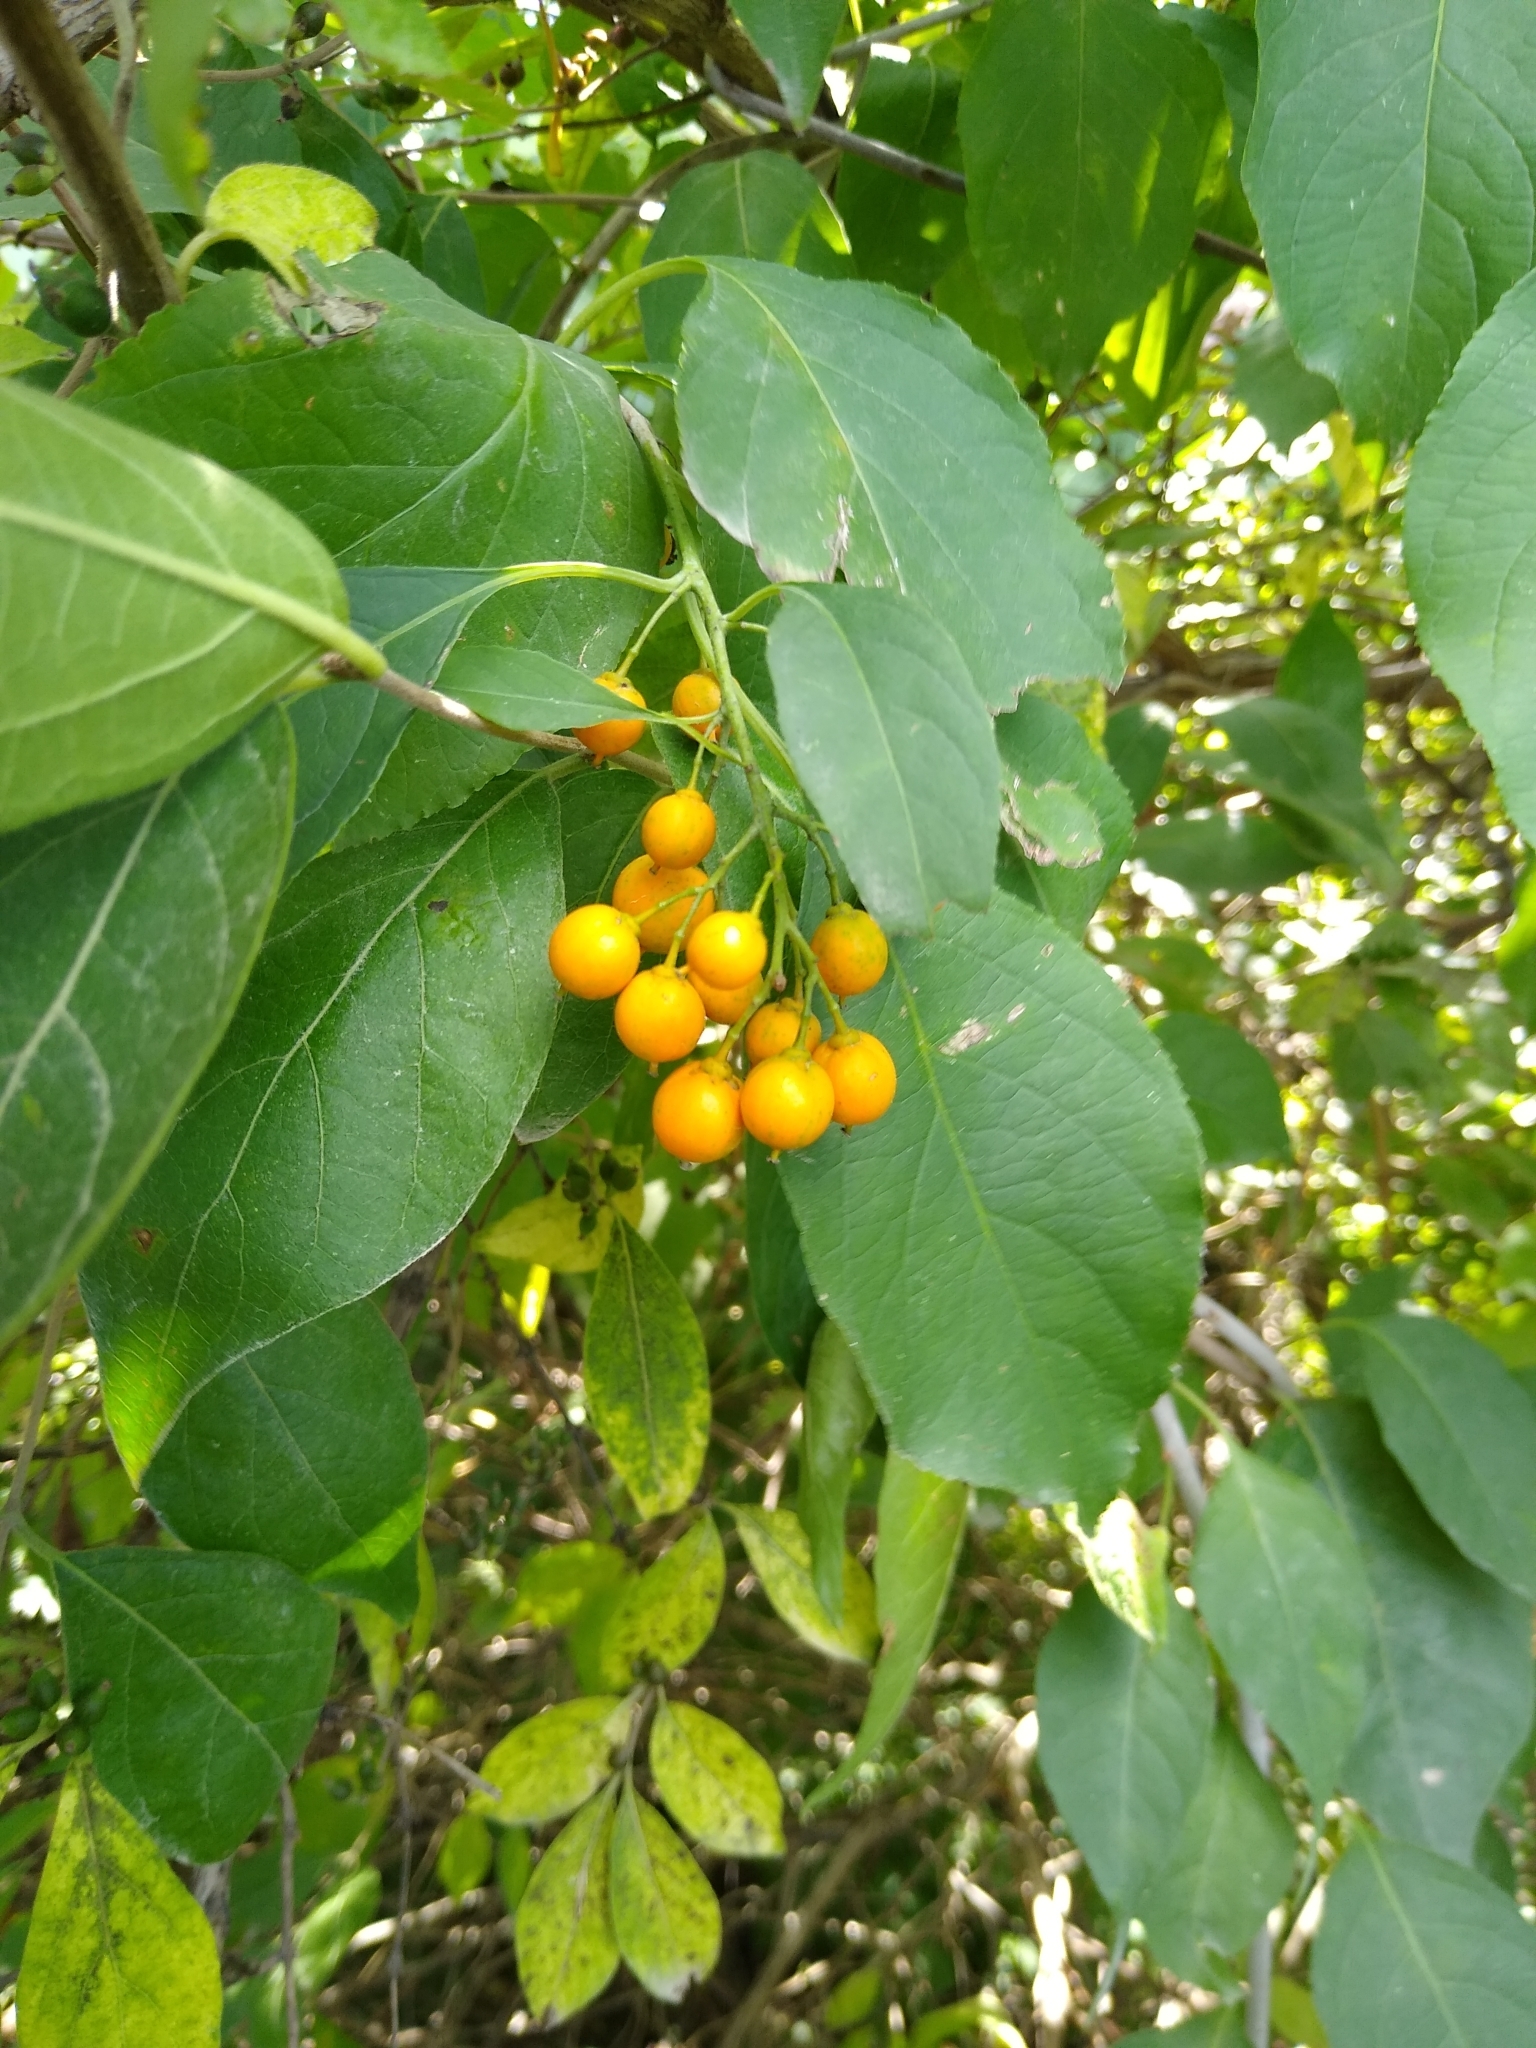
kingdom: Plantae
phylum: Tracheophyta
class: Magnoliopsida
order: Celastrales
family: Celastraceae
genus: Celastrus
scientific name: Celastrus scandens
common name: American bittersweet
